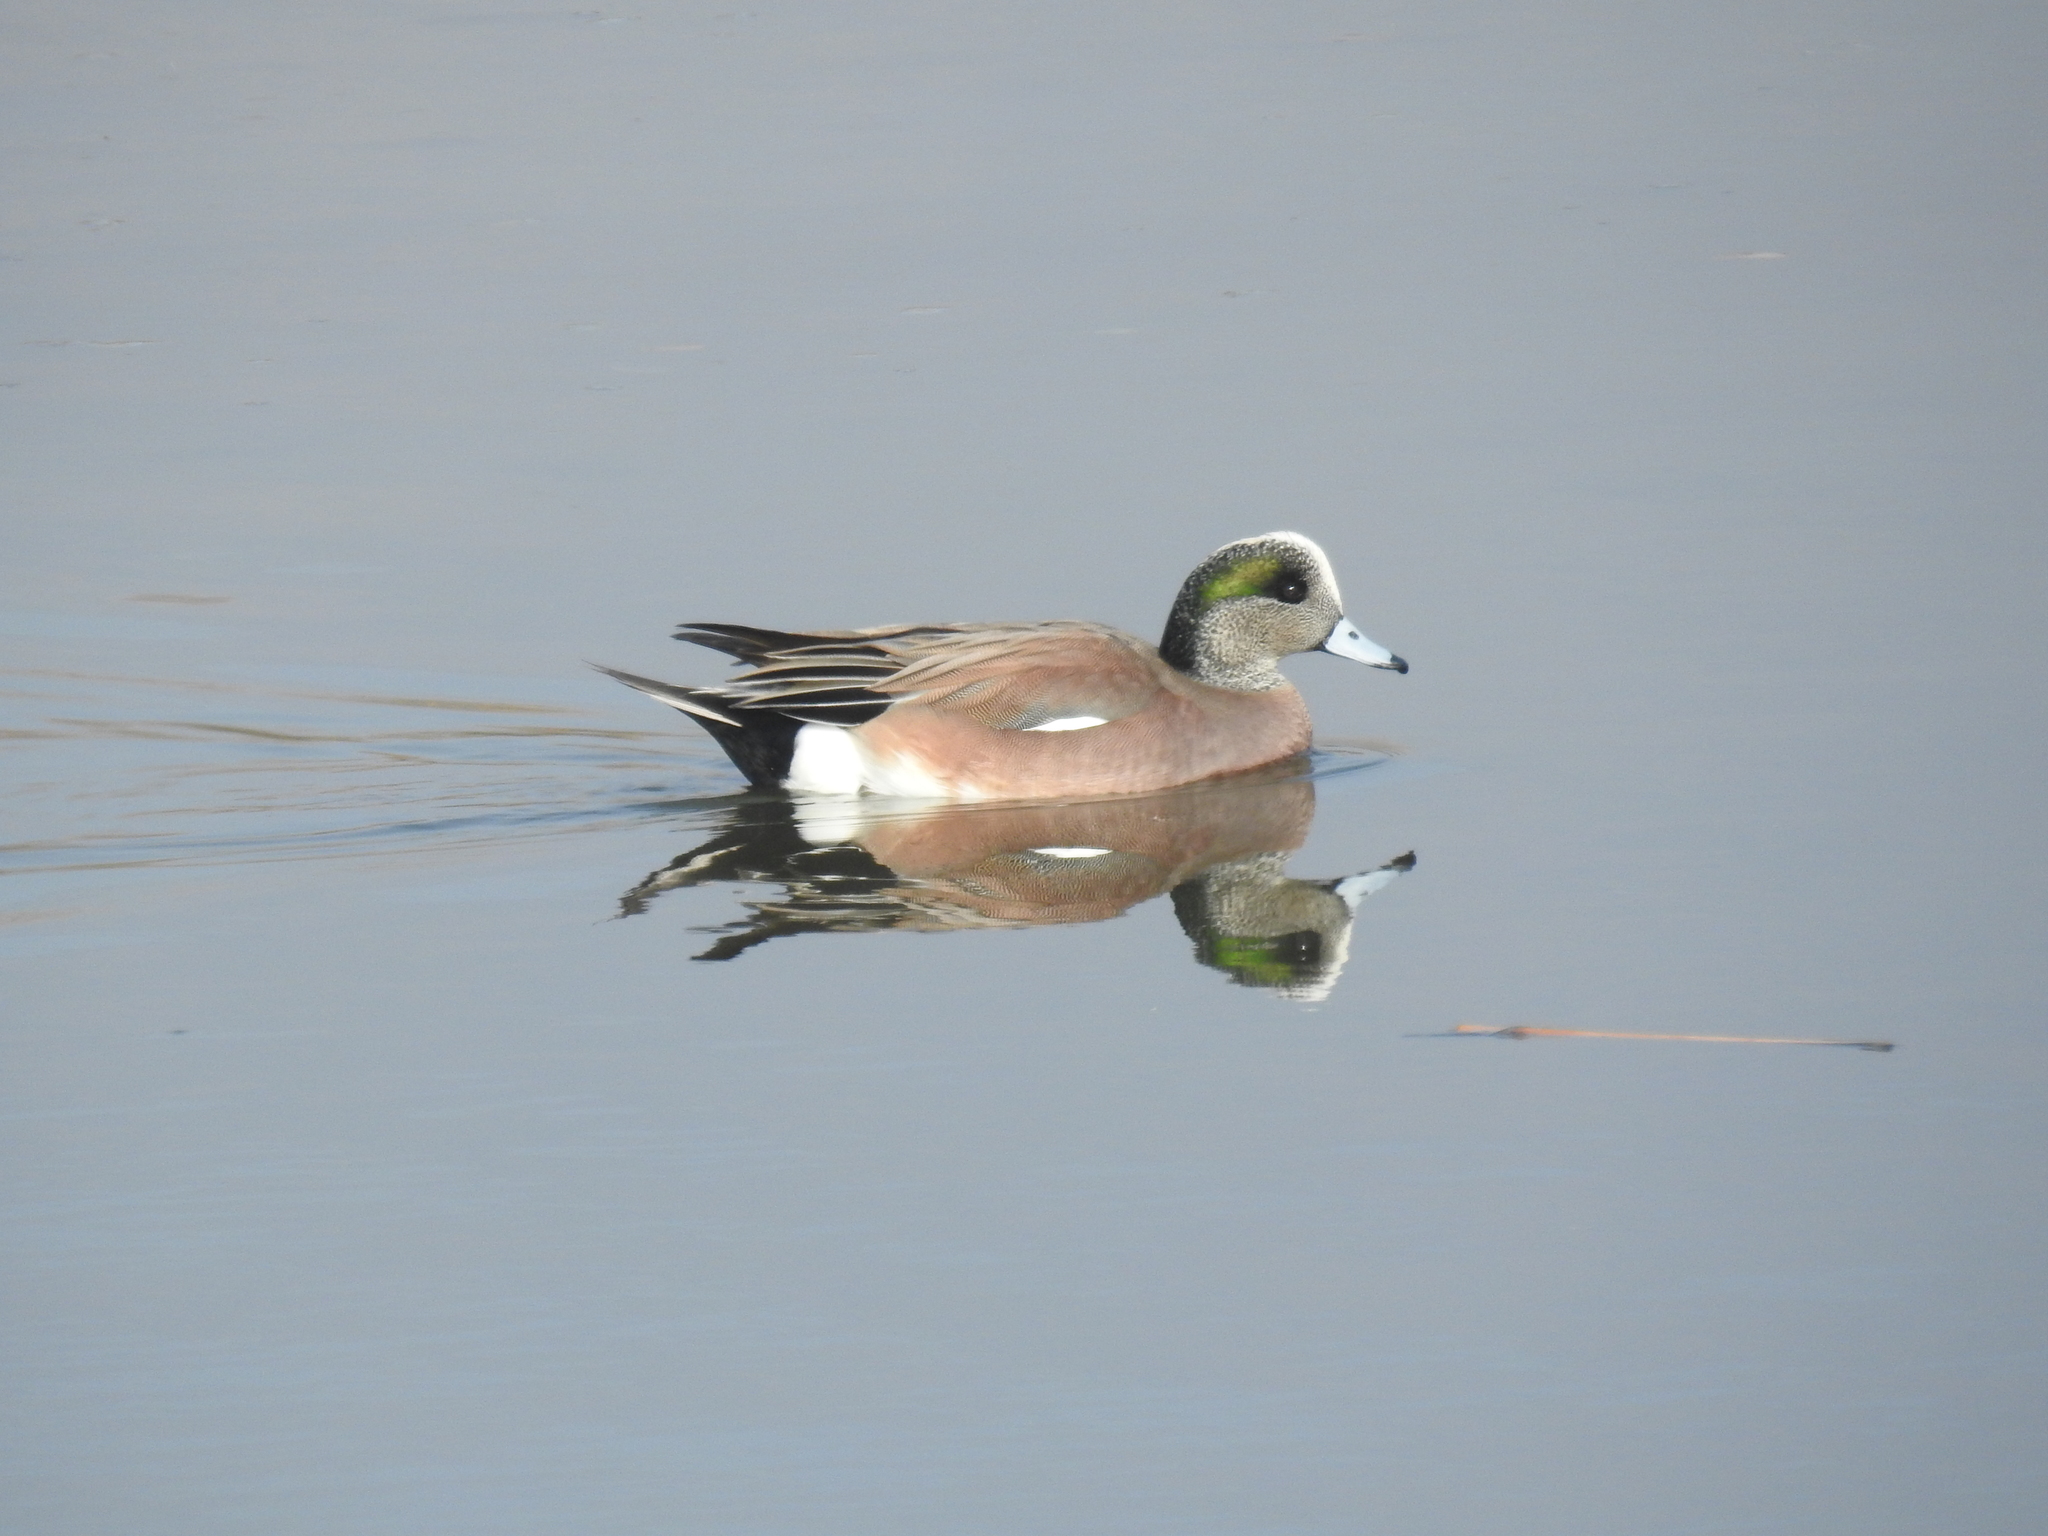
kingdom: Animalia
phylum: Chordata
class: Aves
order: Anseriformes
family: Anatidae
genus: Mareca
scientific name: Mareca americana
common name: American wigeon
